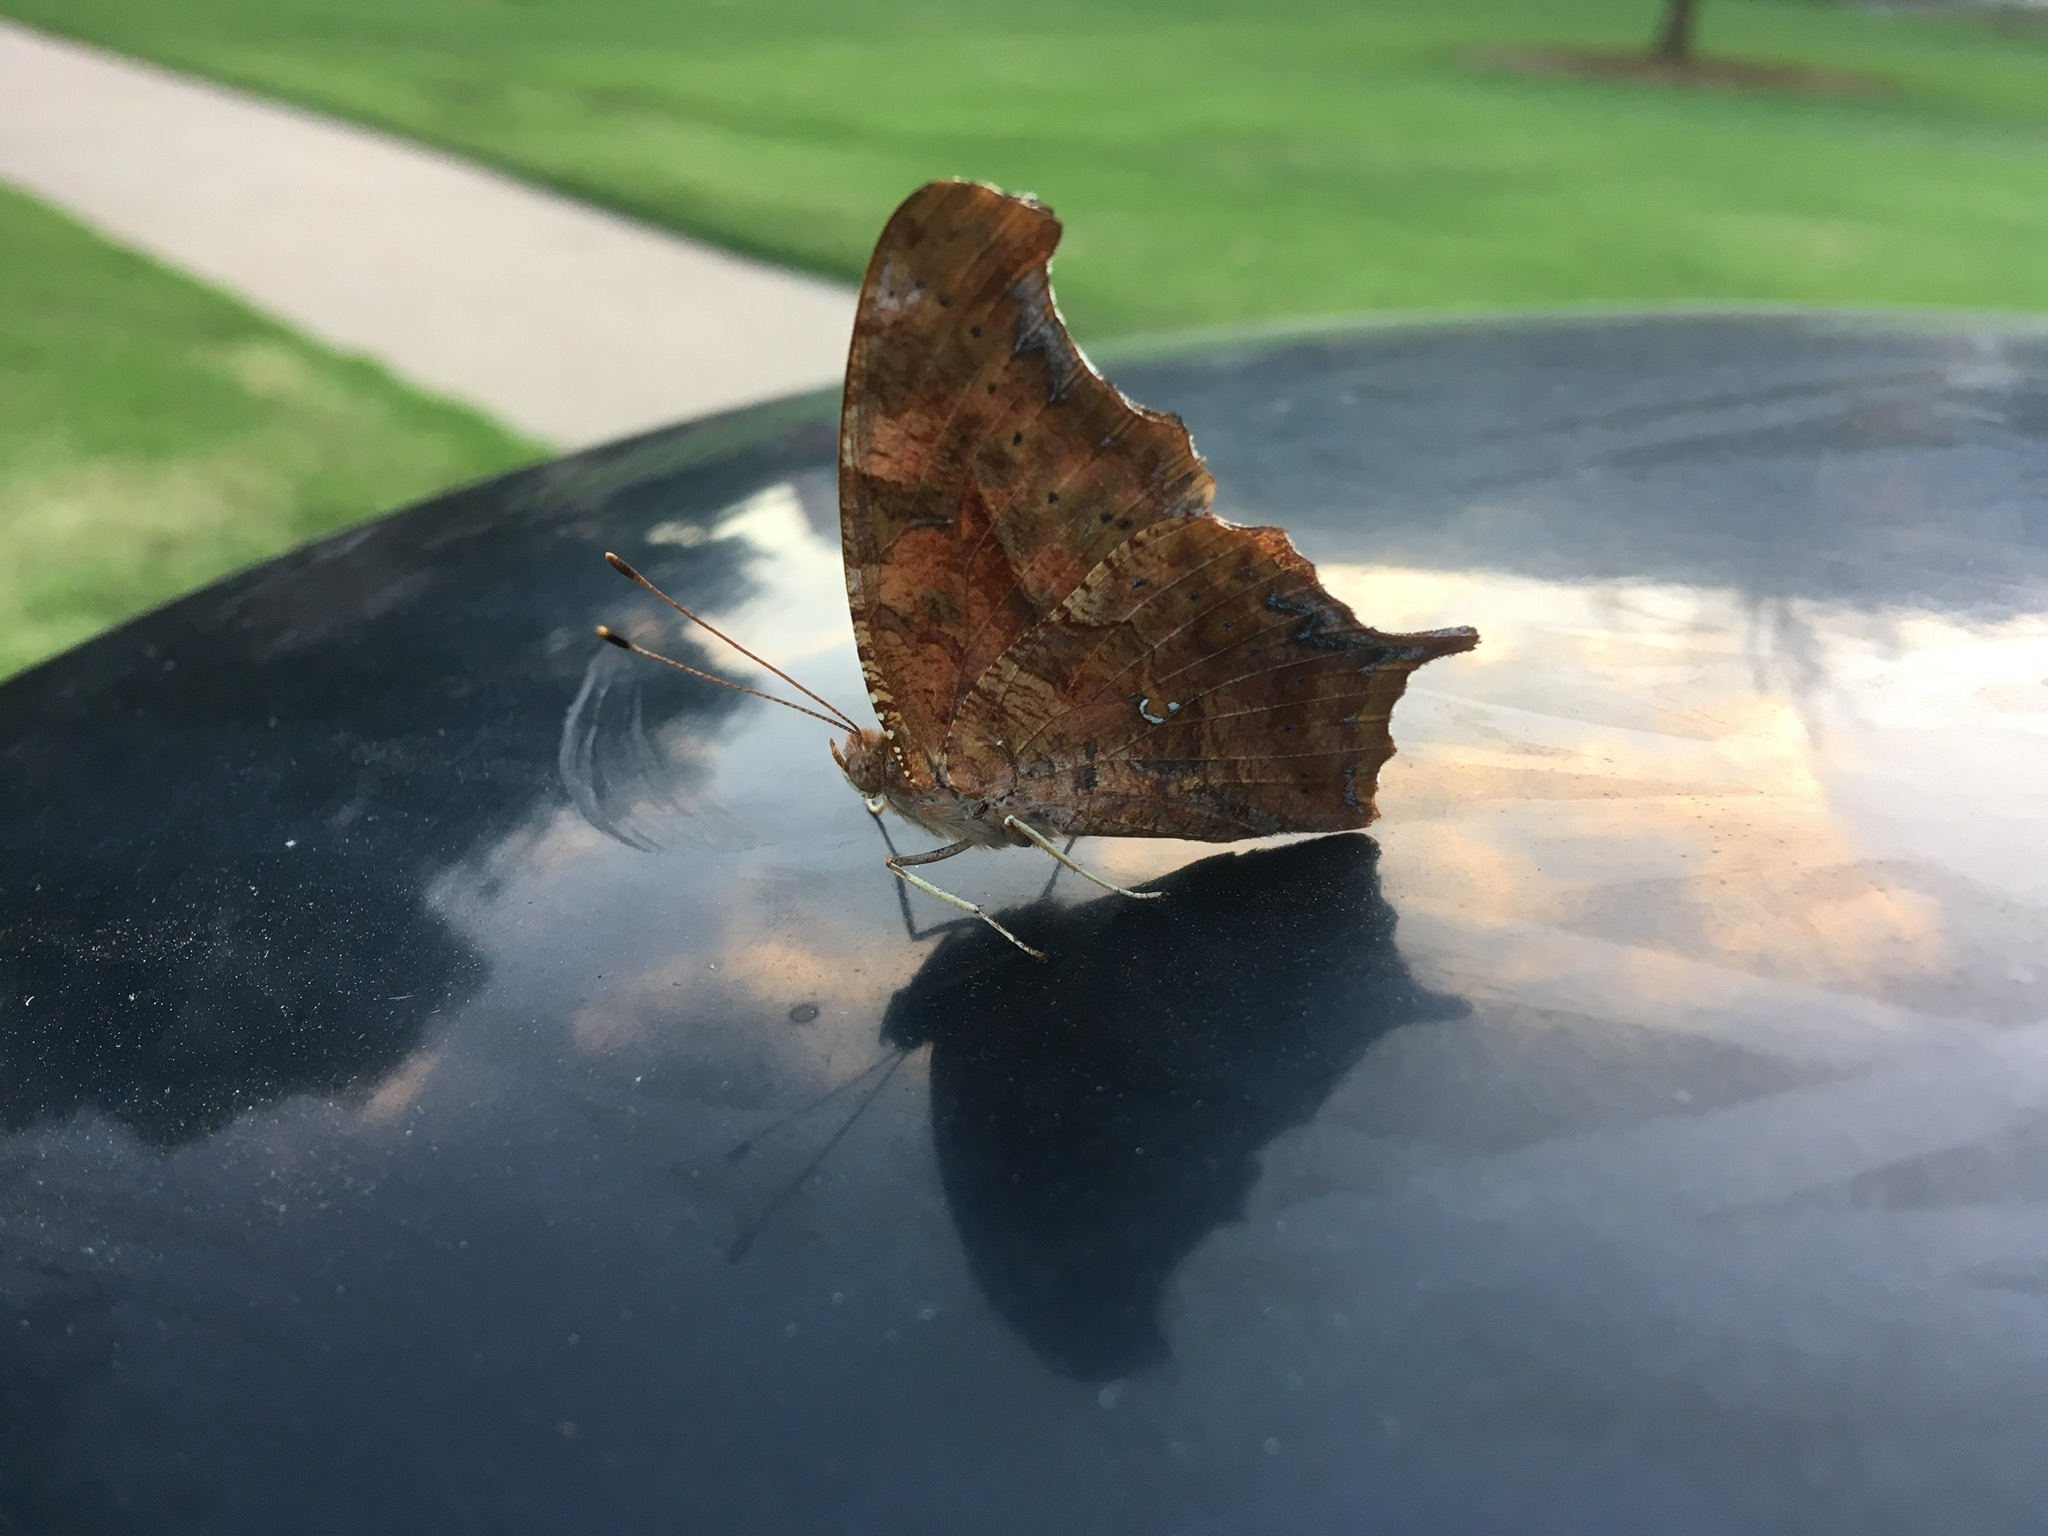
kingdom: Animalia
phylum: Arthropoda
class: Insecta
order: Lepidoptera
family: Nymphalidae
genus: Polygonia
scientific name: Polygonia interrogationis
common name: Question mark
